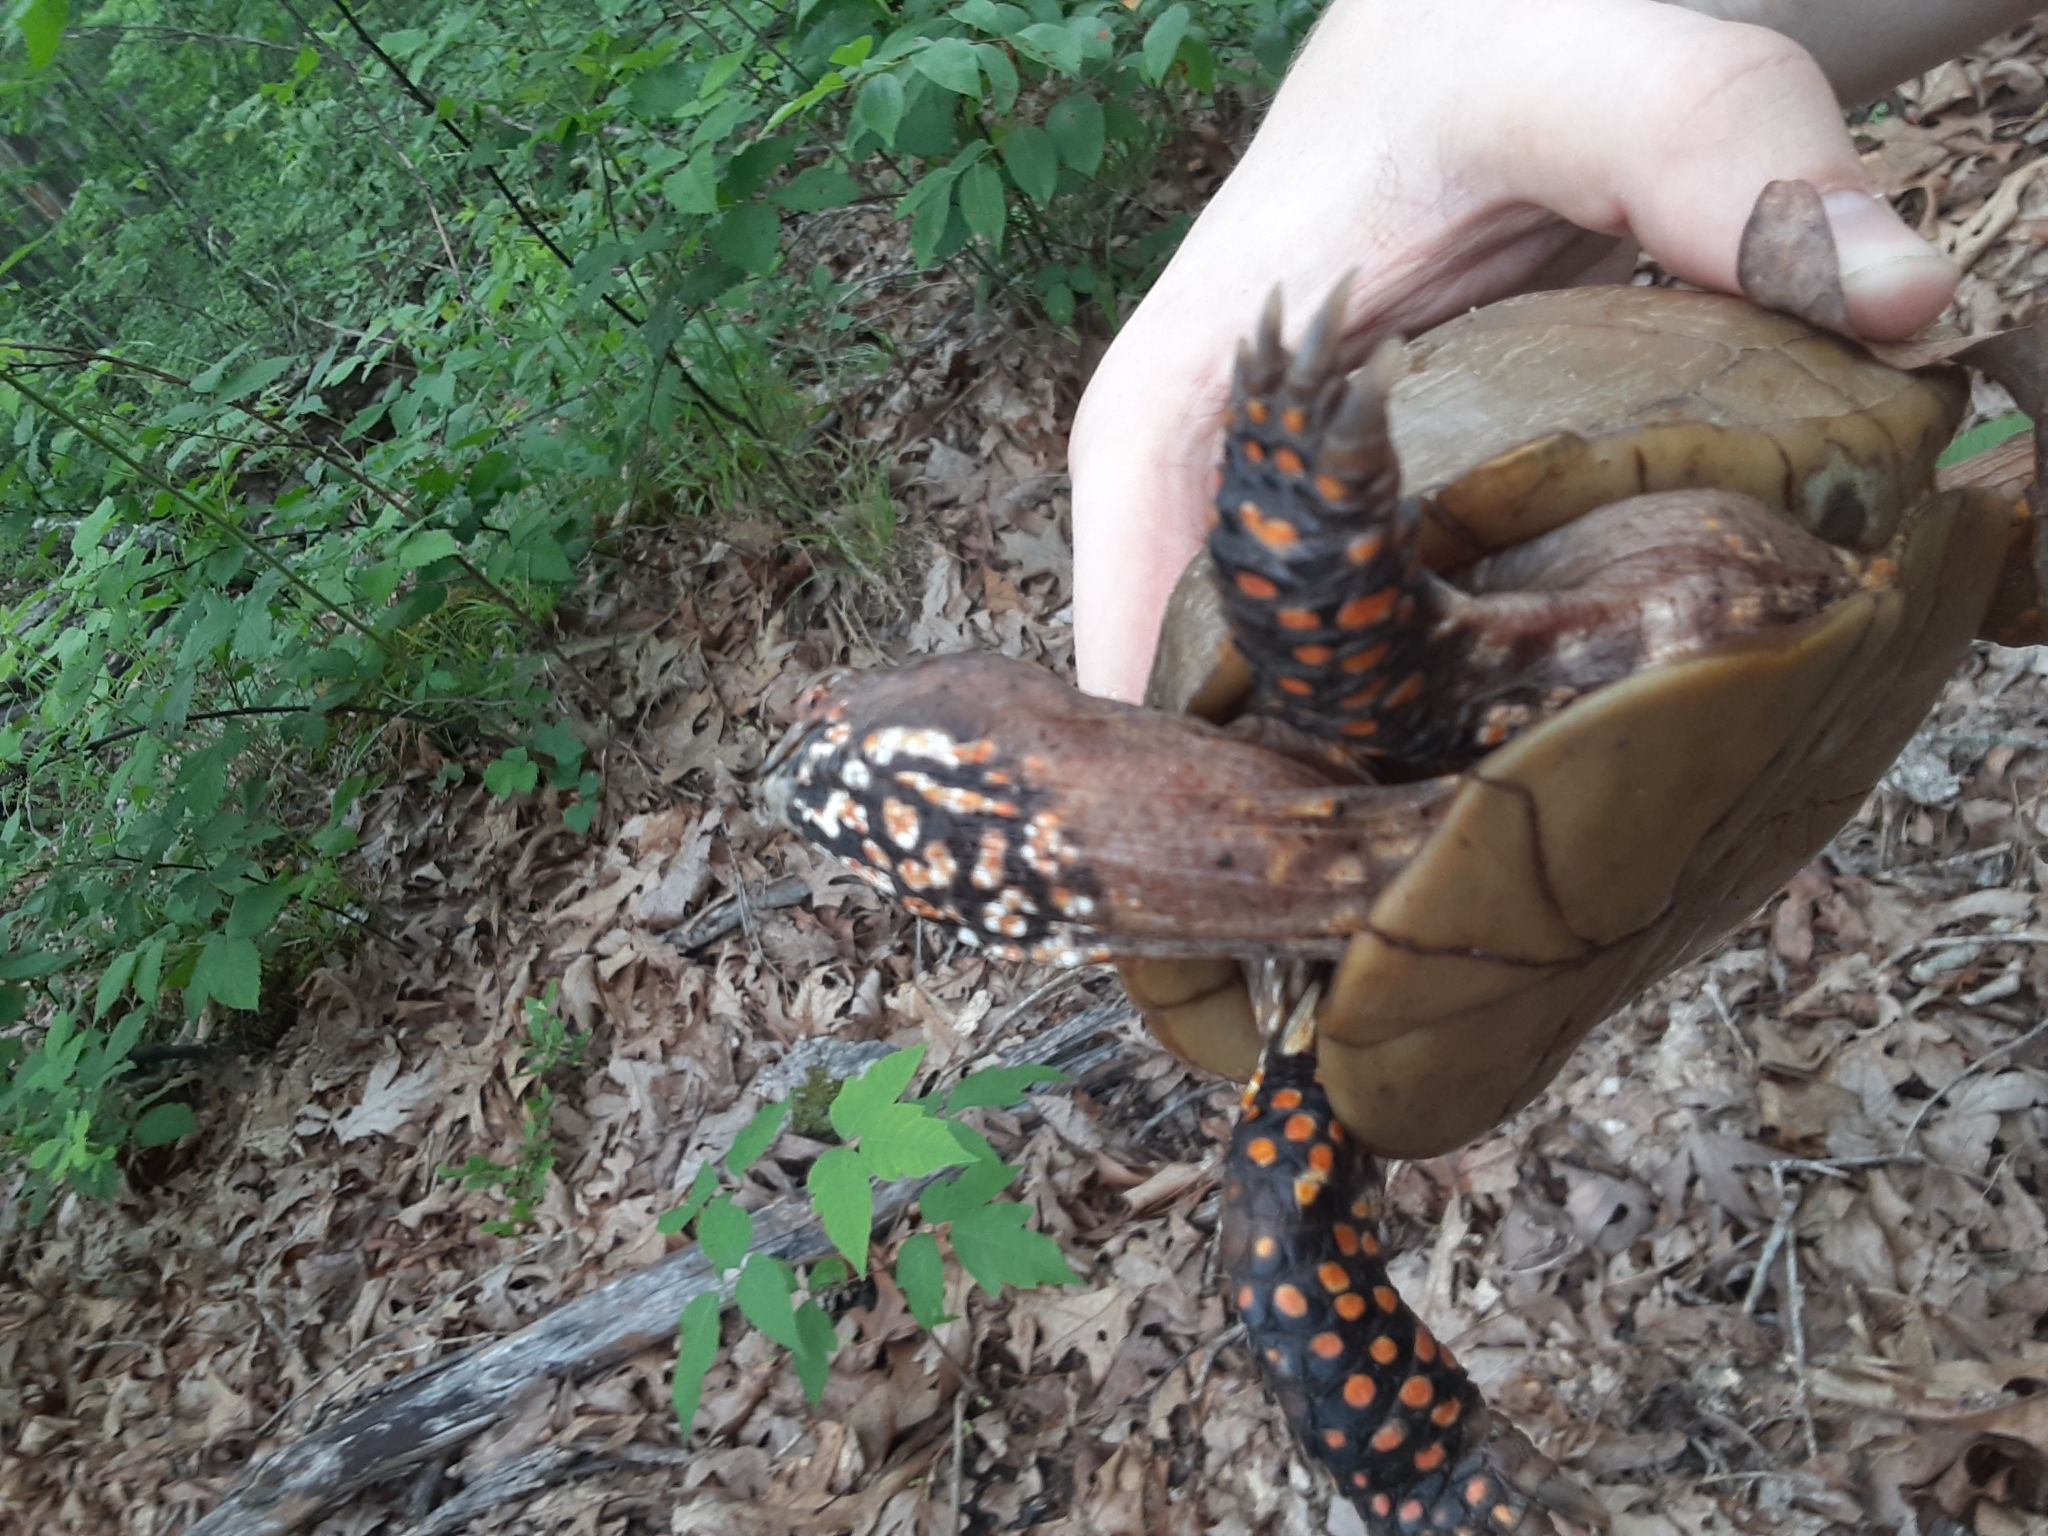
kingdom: Animalia
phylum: Chordata
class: Testudines
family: Emydidae
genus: Terrapene
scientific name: Terrapene carolina
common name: Common box turtle
